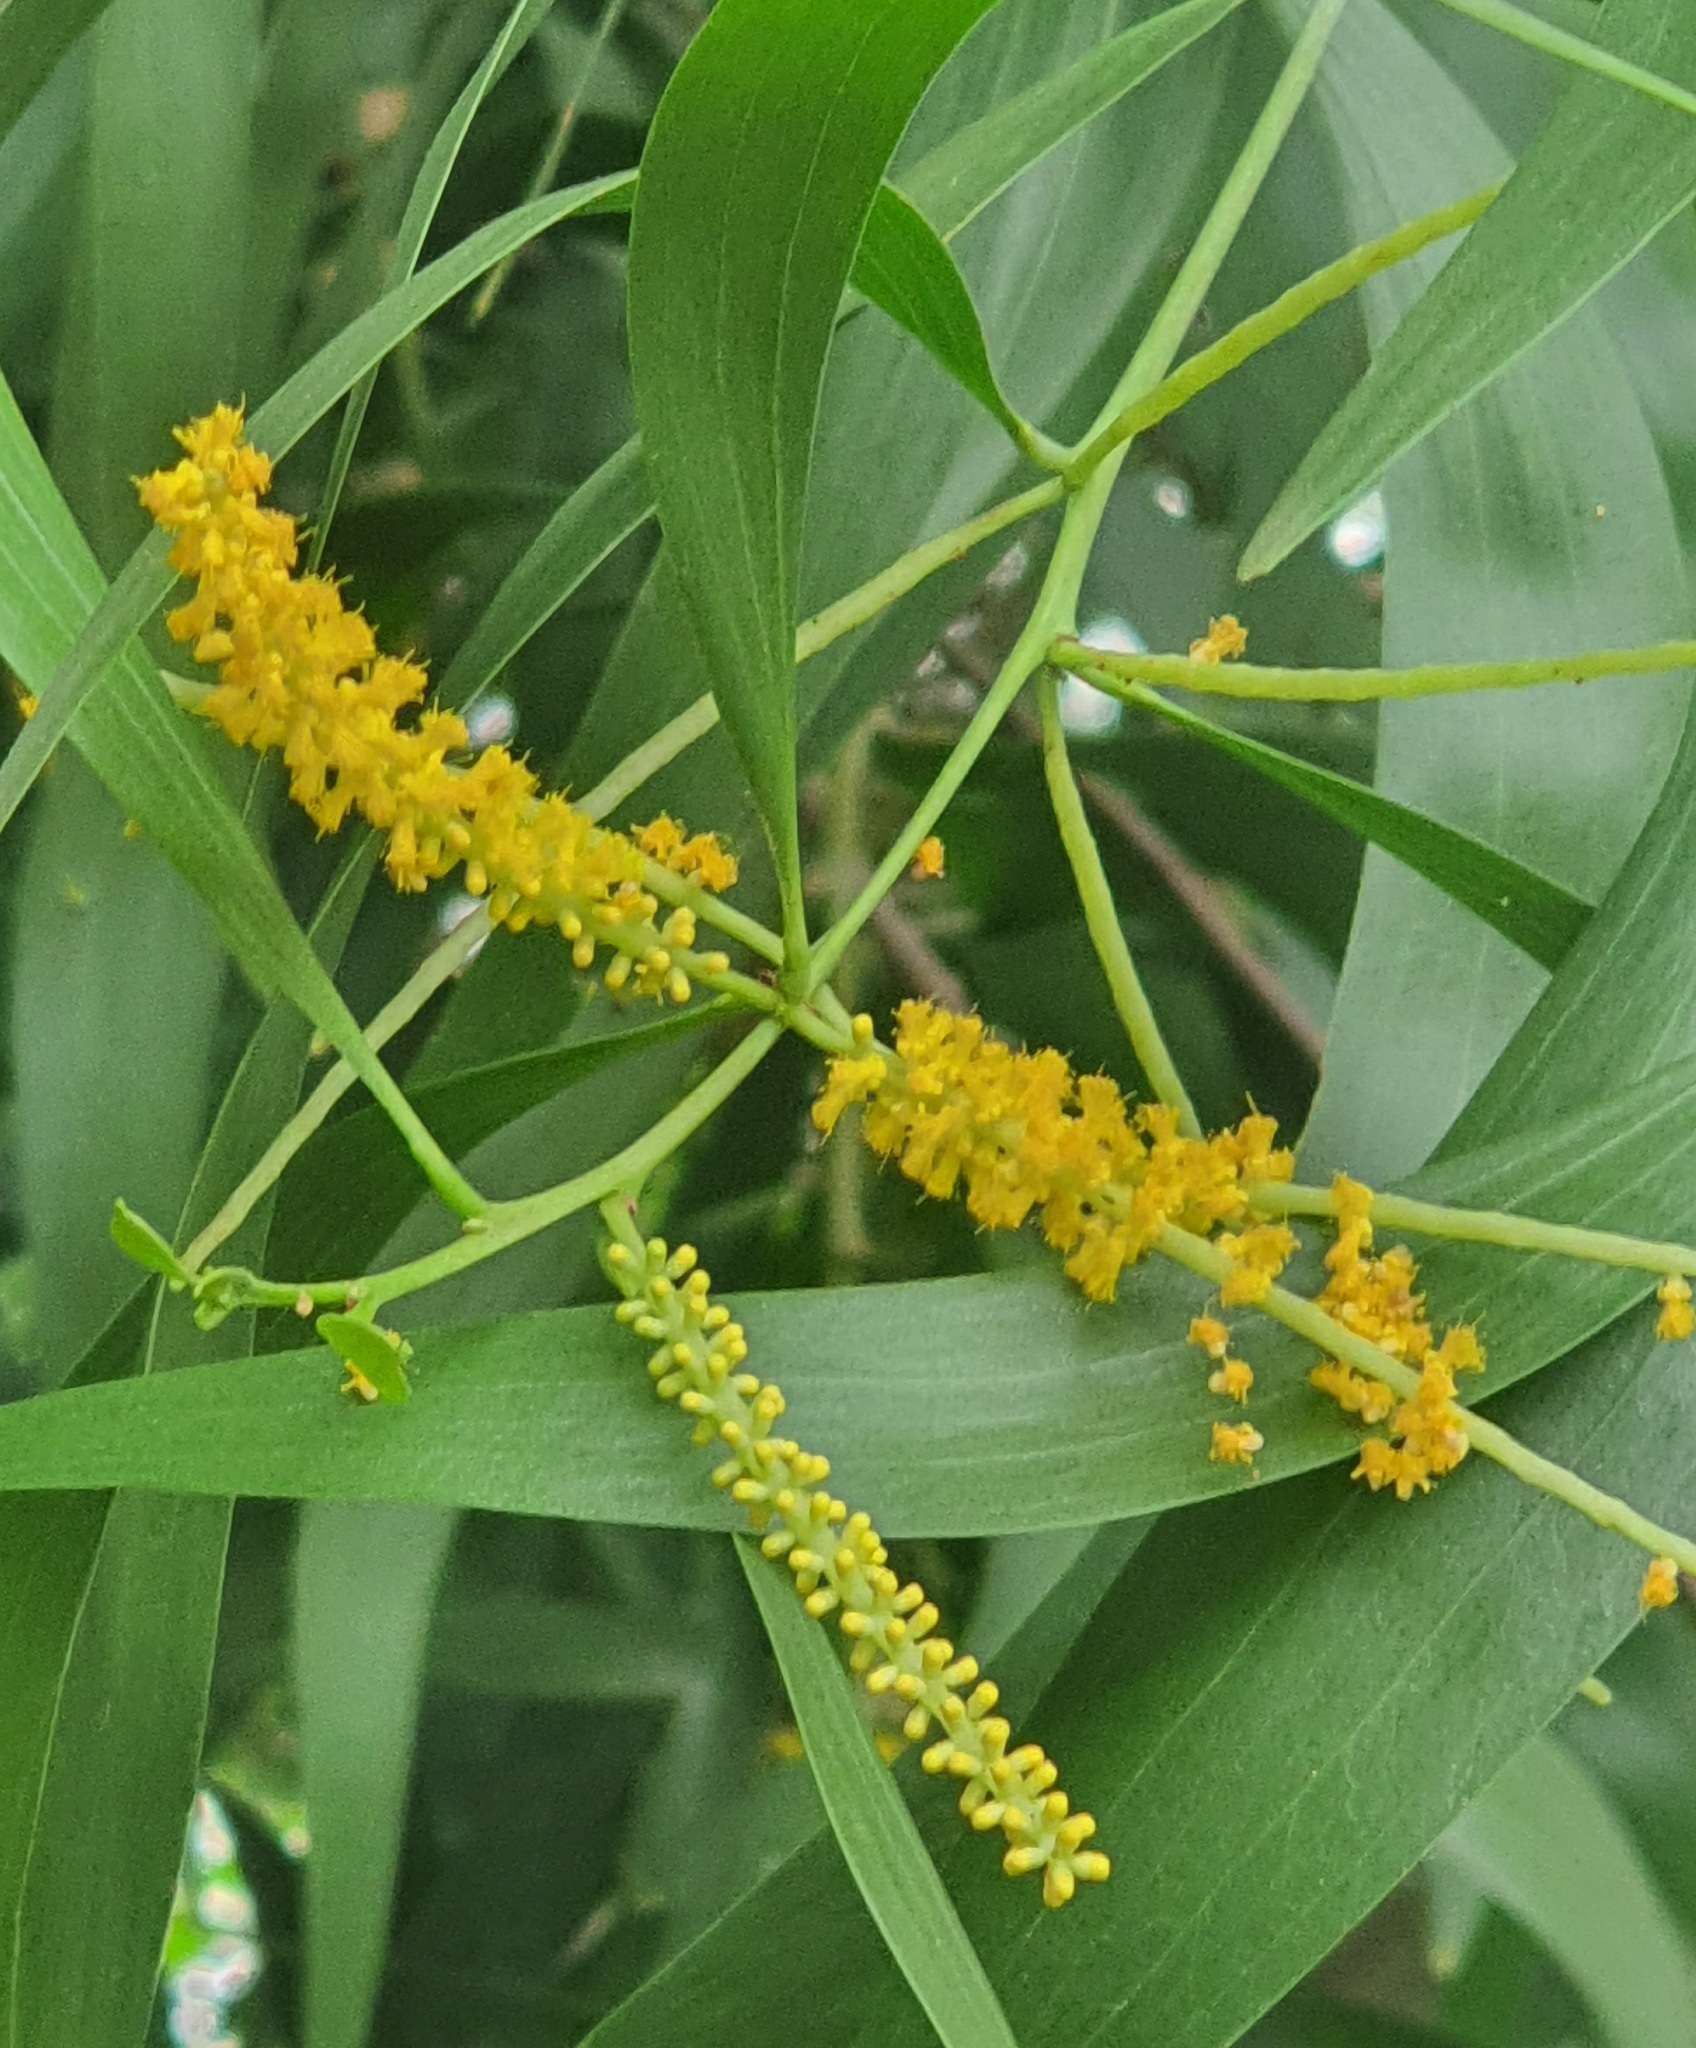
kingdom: Plantae
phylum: Tracheophyta
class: Magnoliopsida
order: Fabales
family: Fabaceae
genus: Acacia
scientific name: Acacia auriculiformis
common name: Earleaf acacia
